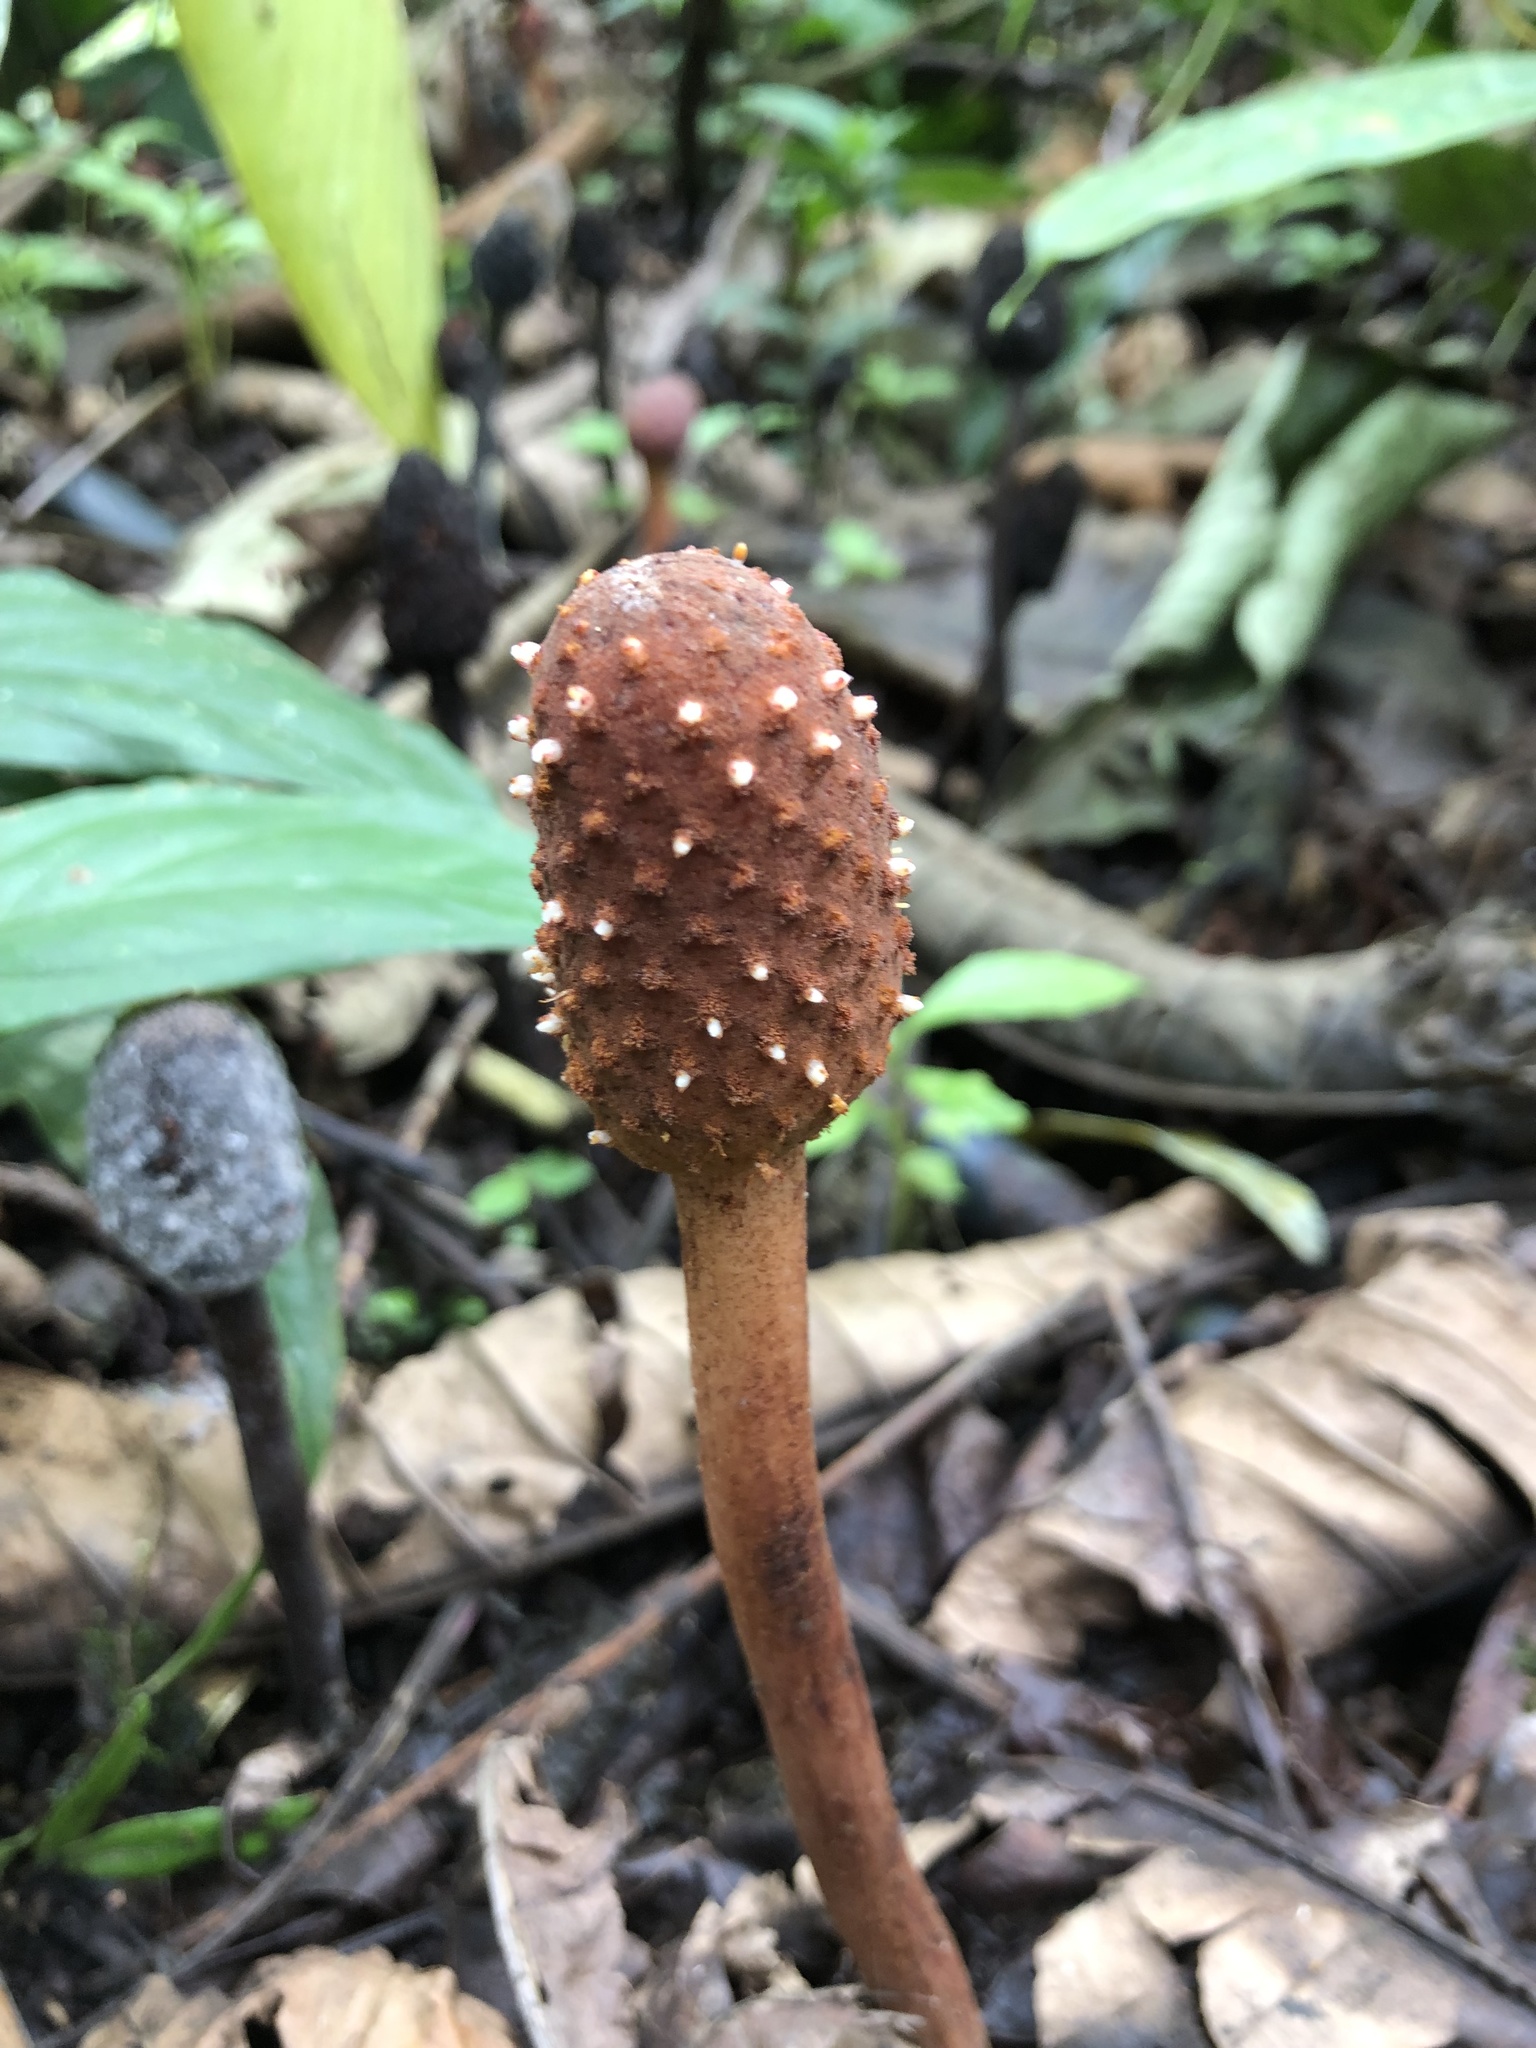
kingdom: Plantae
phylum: Tracheophyta
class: Magnoliopsida
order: Santalales
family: Balanophoraceae
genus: Helosis
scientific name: Helosis cayennensis
